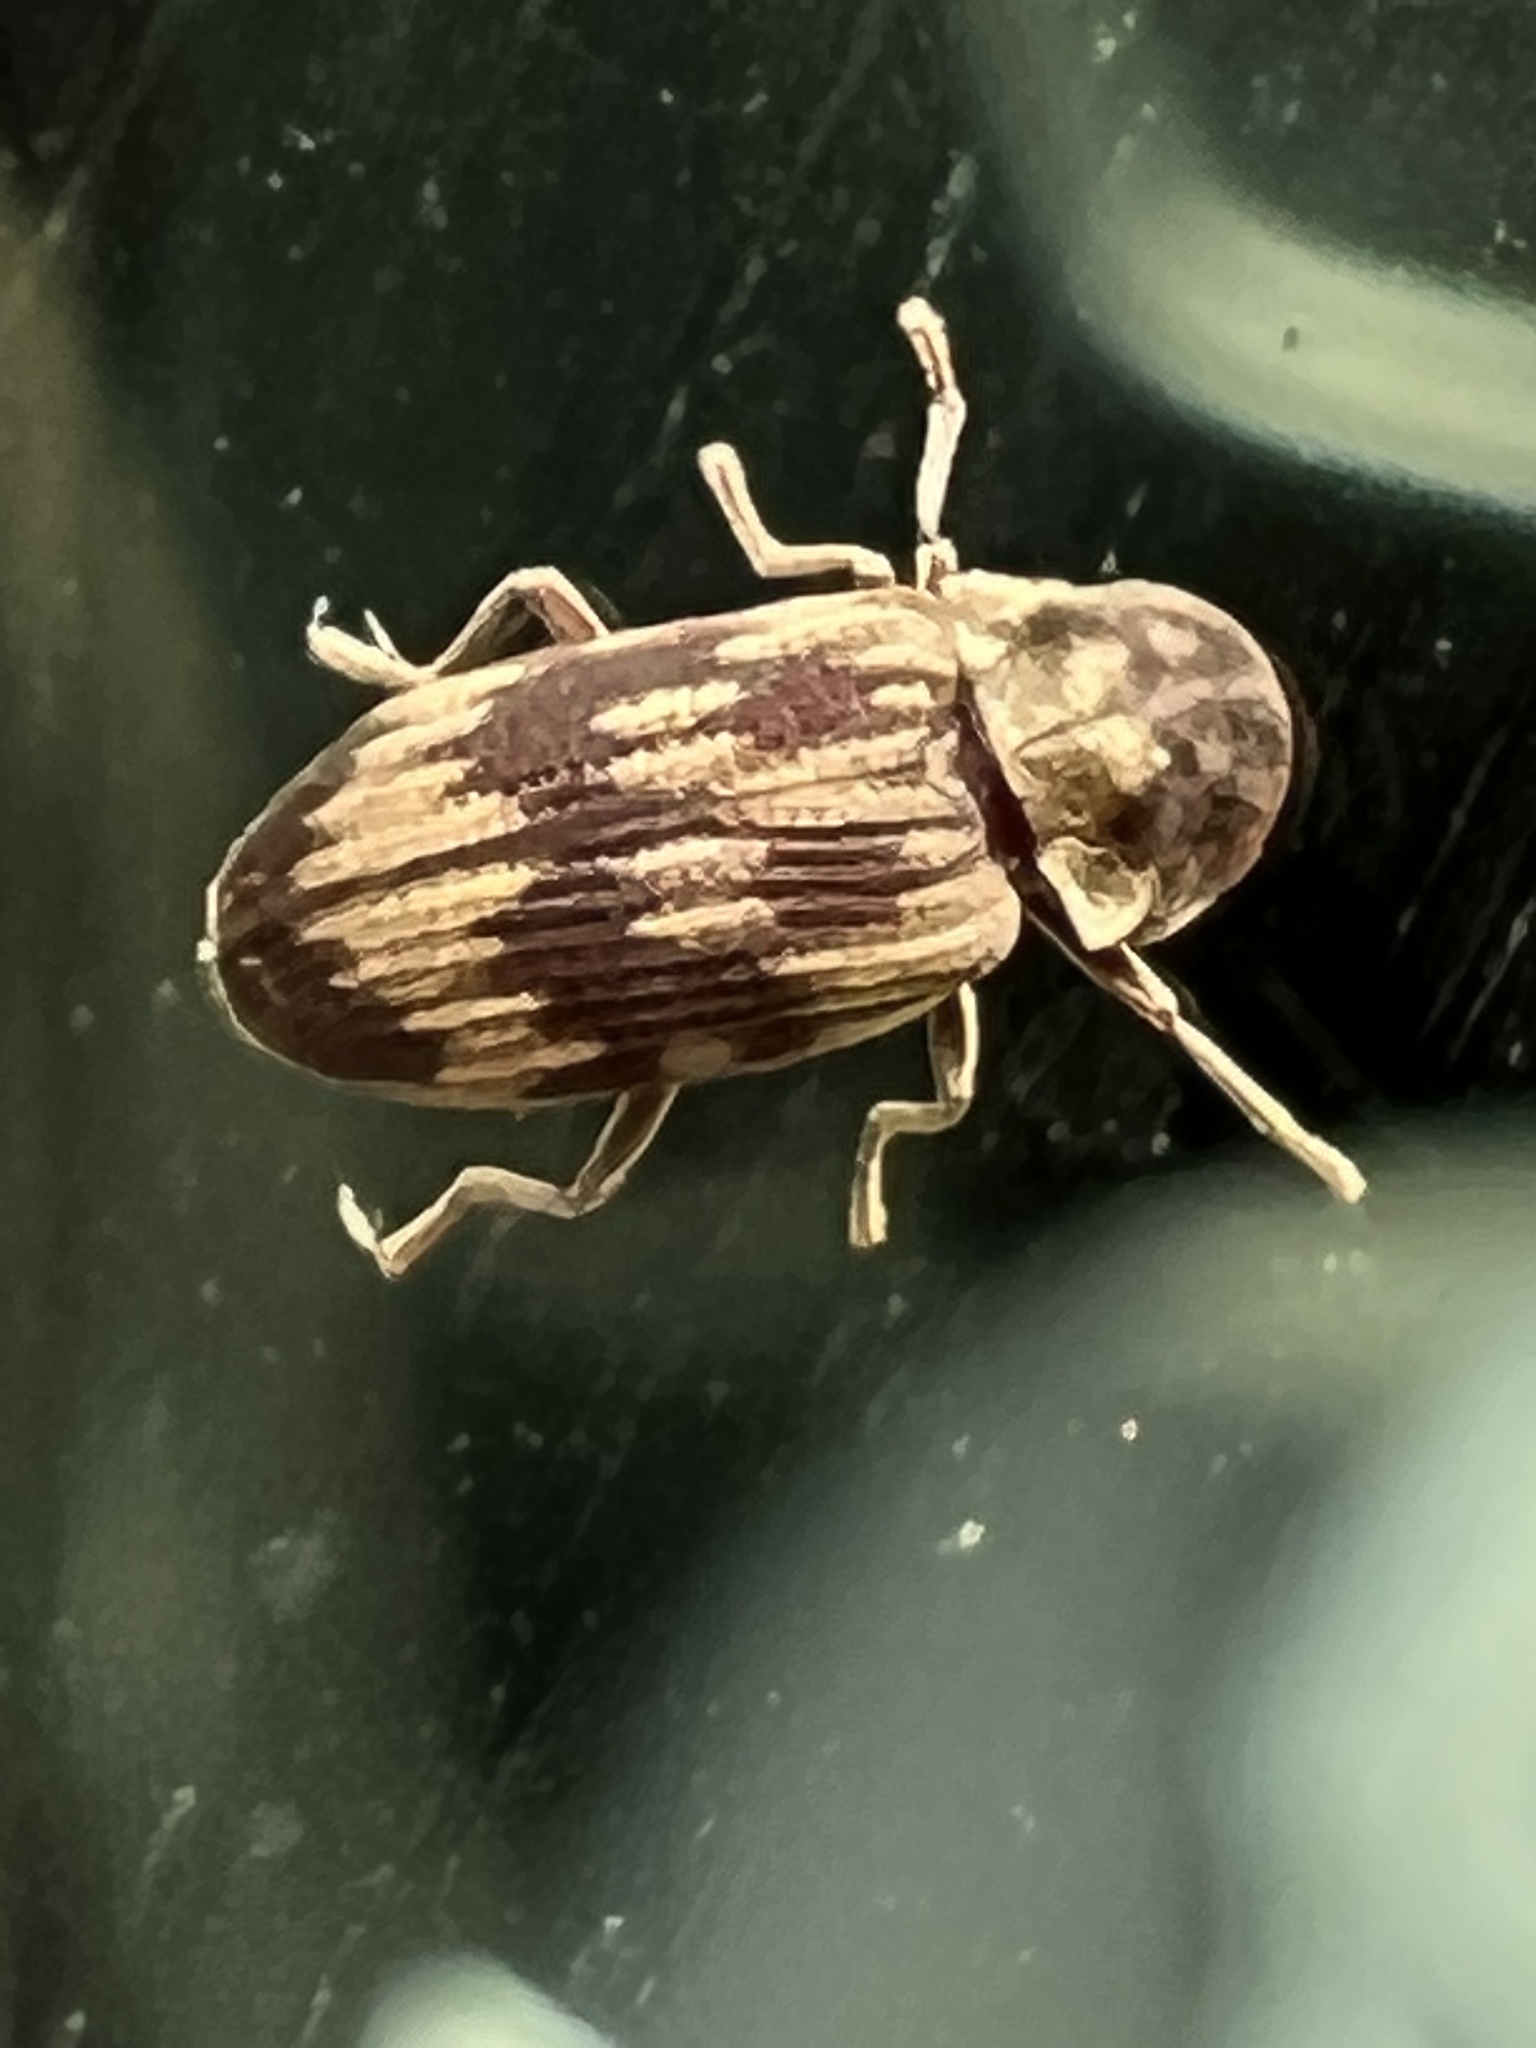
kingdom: Animalia
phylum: Arthropoda
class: Insecta
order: Coleoptera
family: Anobiidae
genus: Hadrobregmus
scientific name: Hadrobregmus notatus
